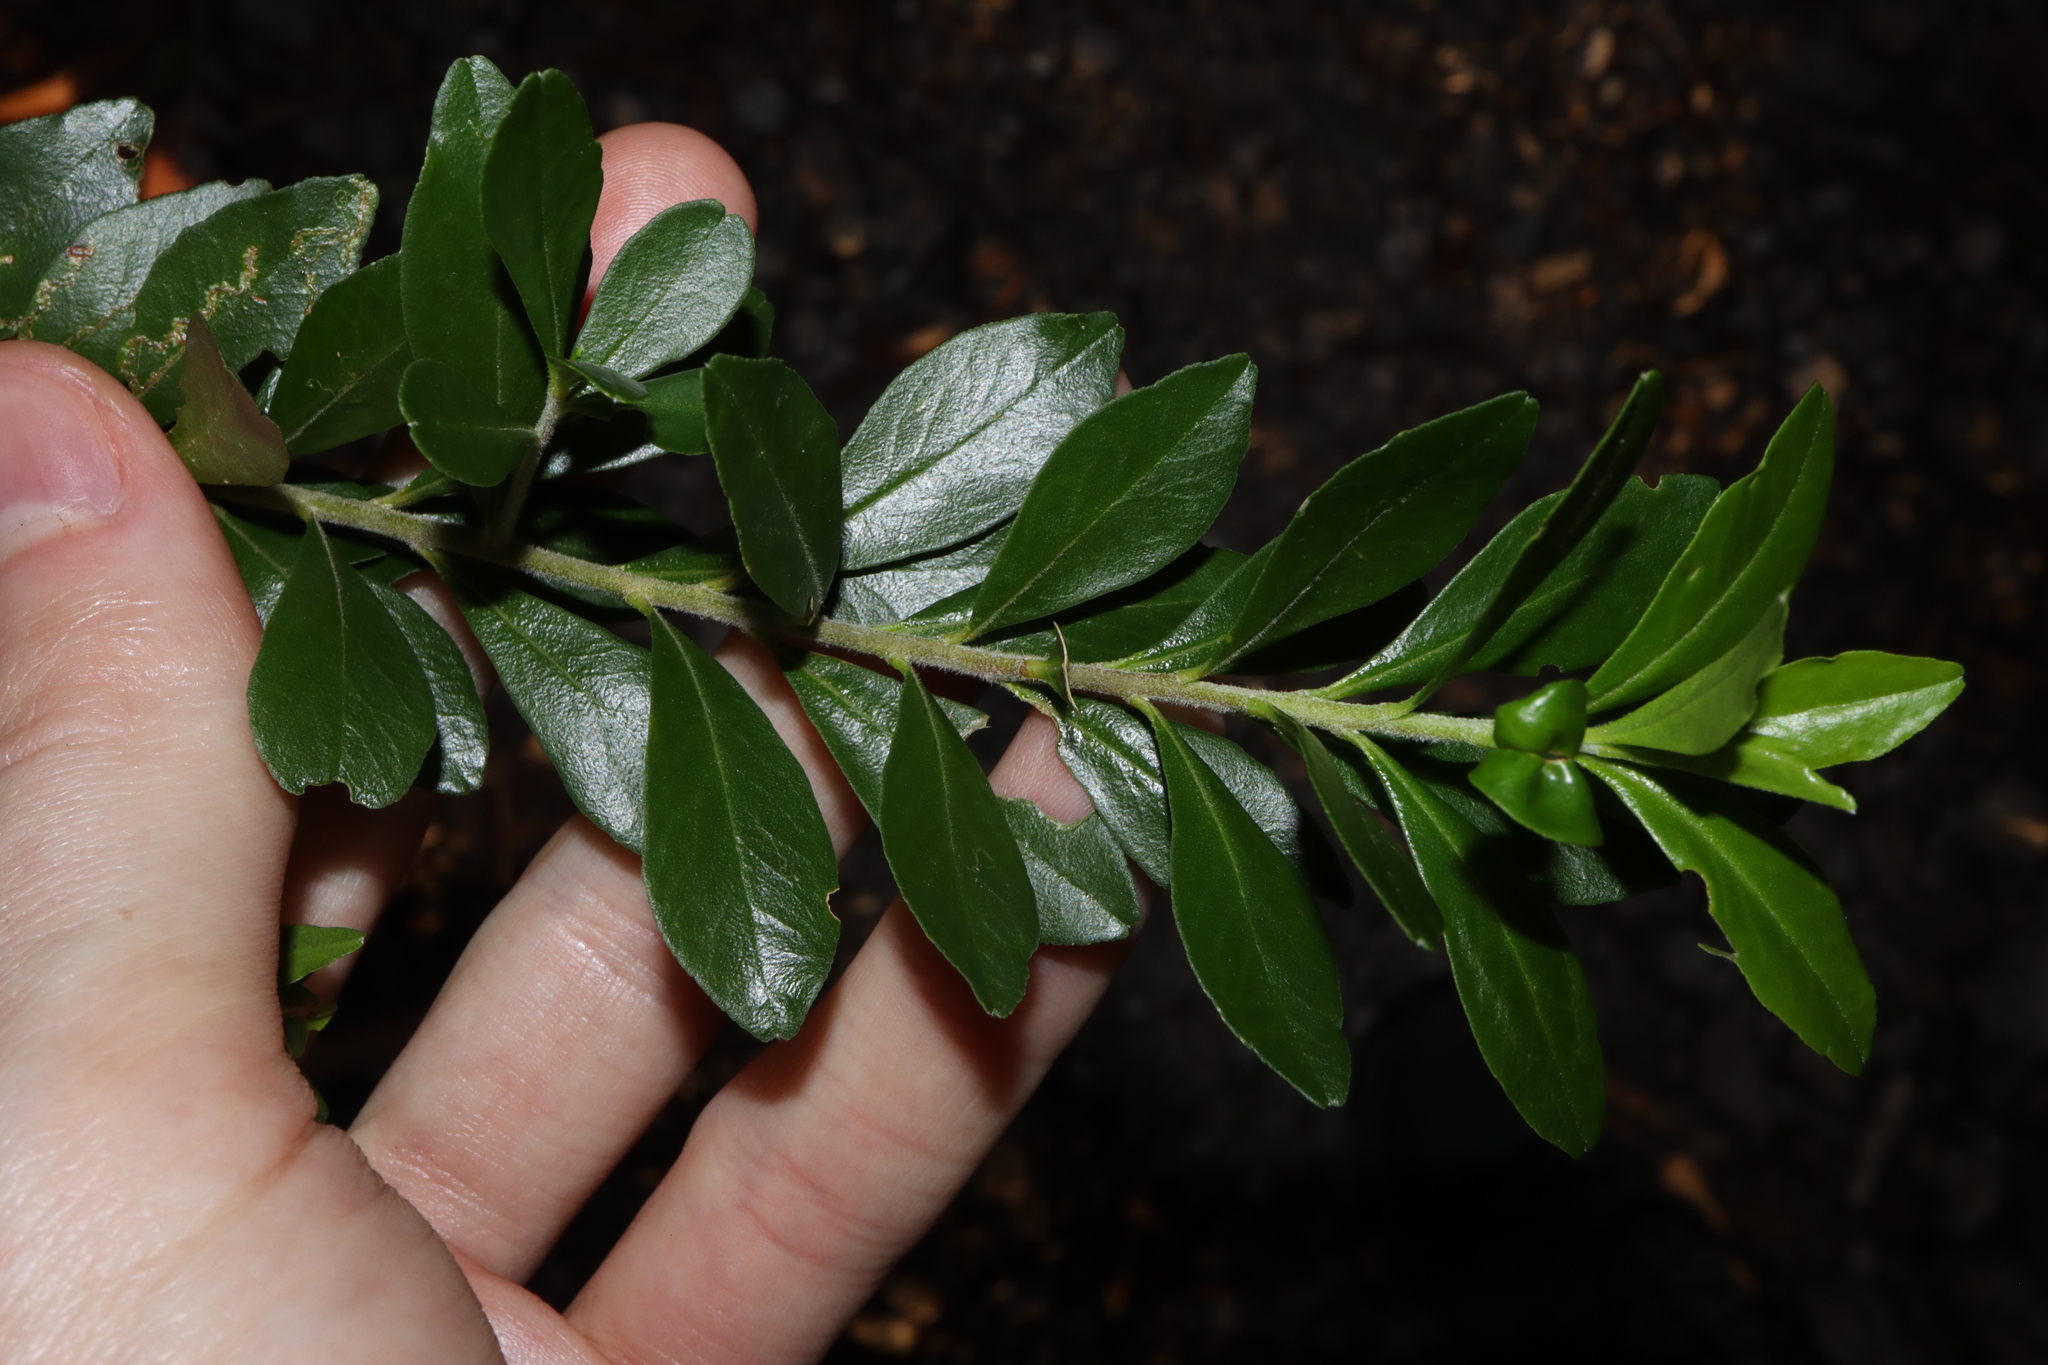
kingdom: Plantae
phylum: Tracheophyta
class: Magnoliopsida
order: Sapindales
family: Rutaceae
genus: Leionema
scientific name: Leionema beckleri
